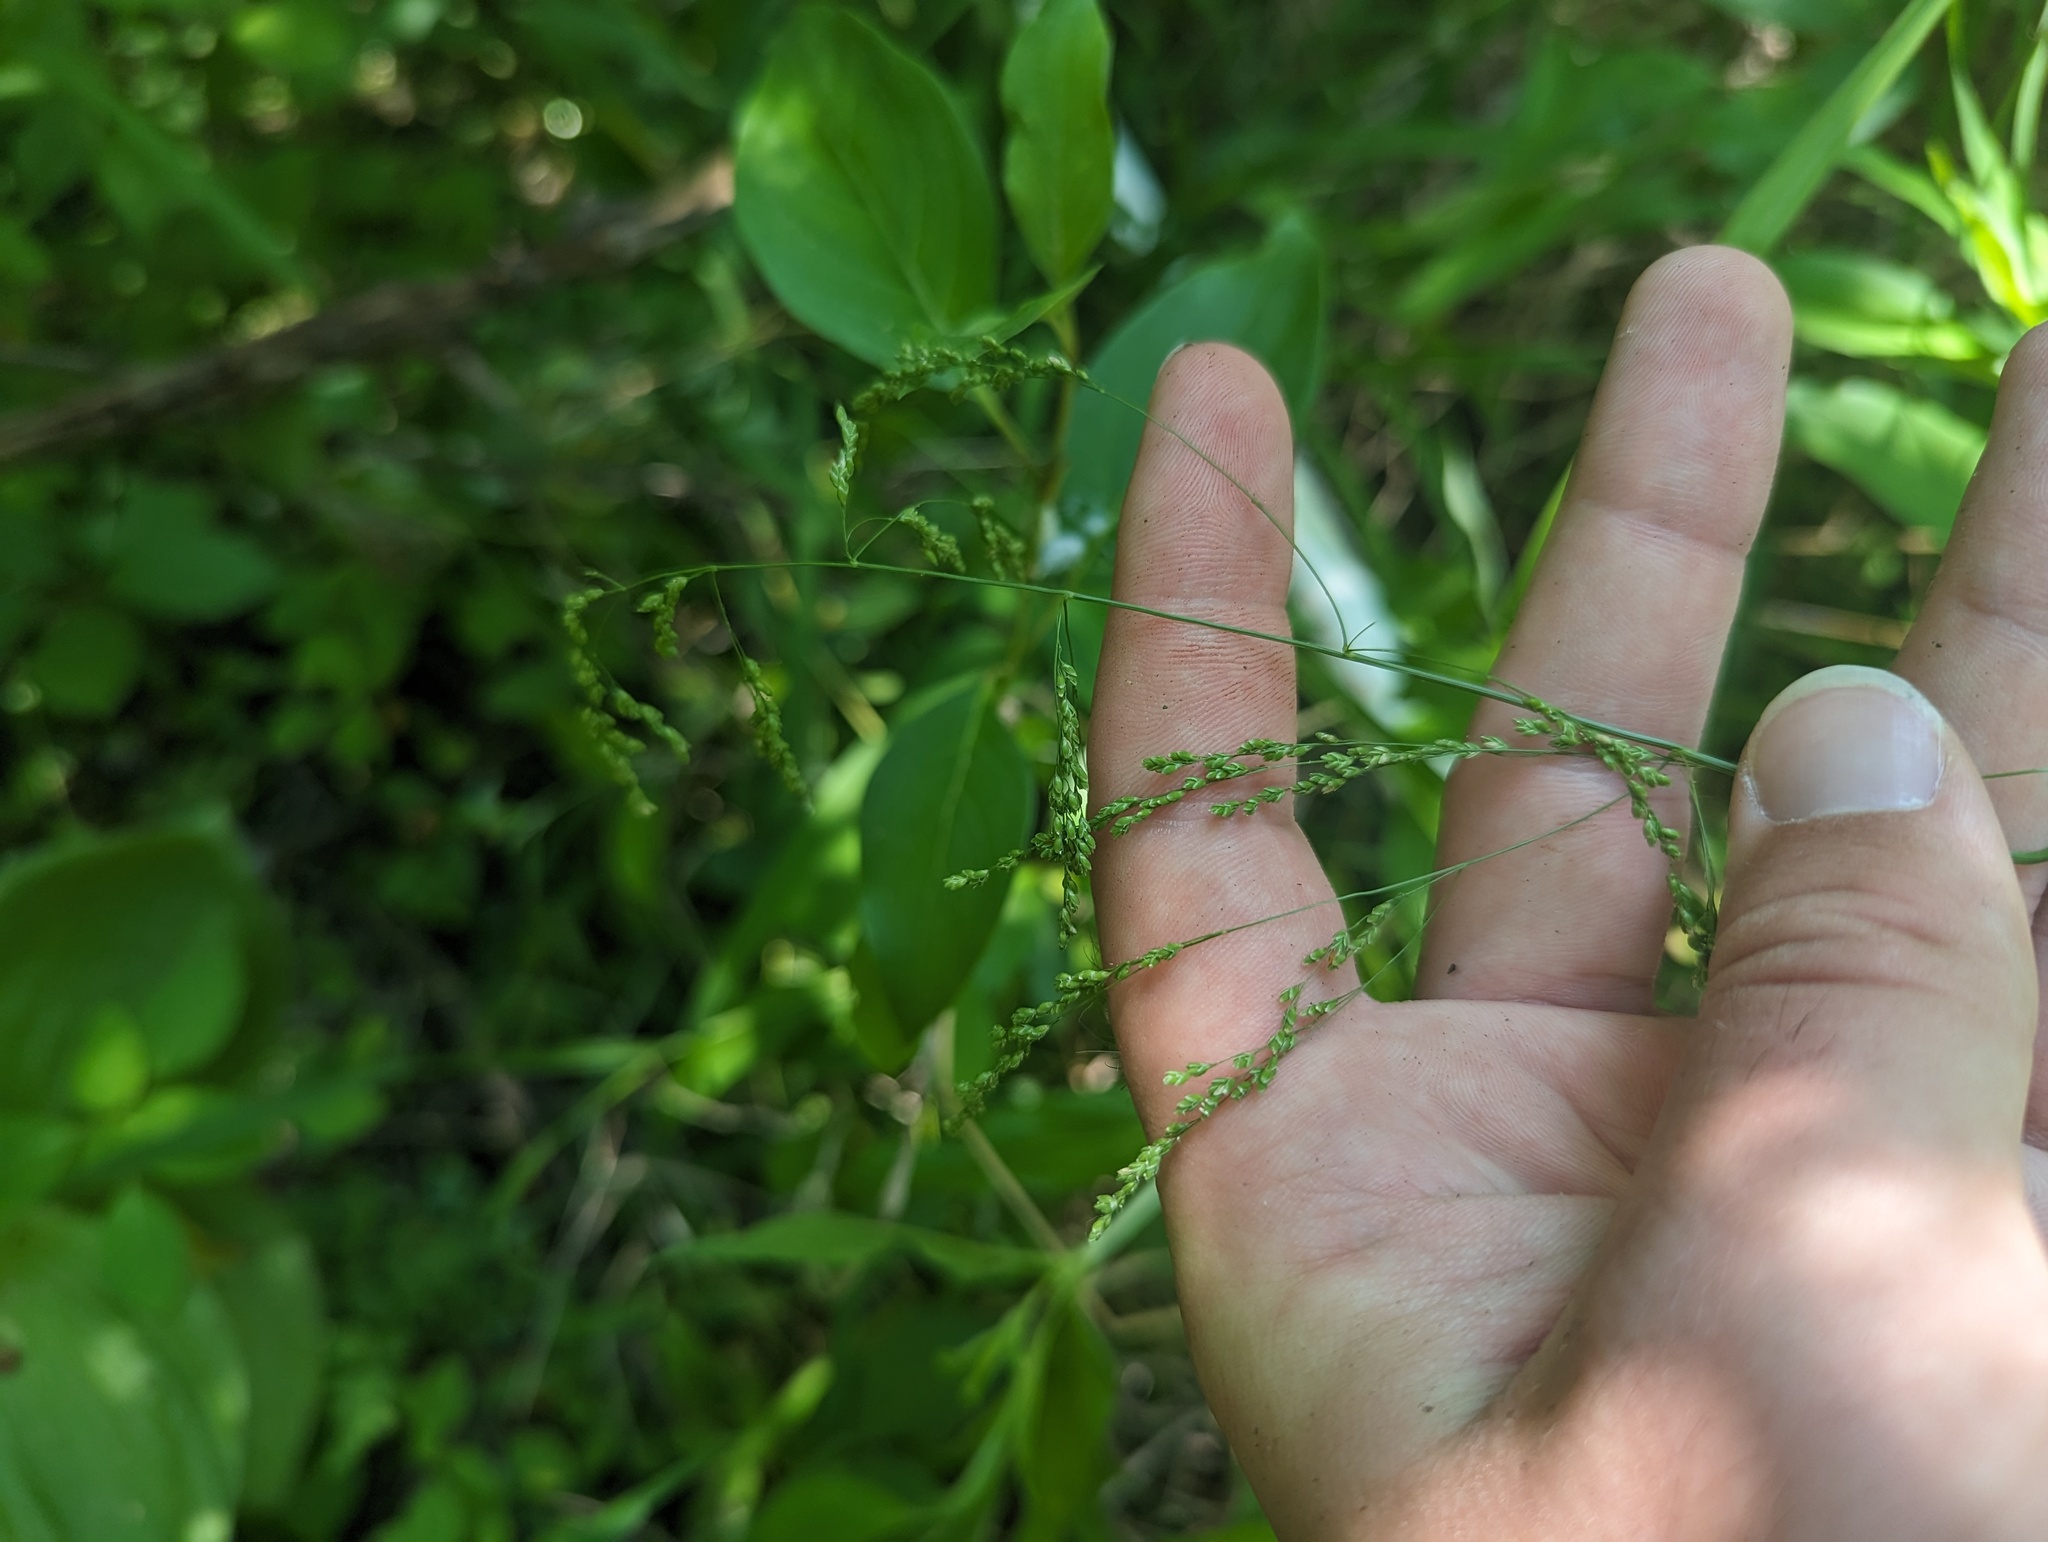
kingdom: Plantae
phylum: Tracheophyta
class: Liliopsida
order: Poales
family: Poaceae
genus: Glyceria
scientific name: Glyceria striata
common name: Fowl manna grass
